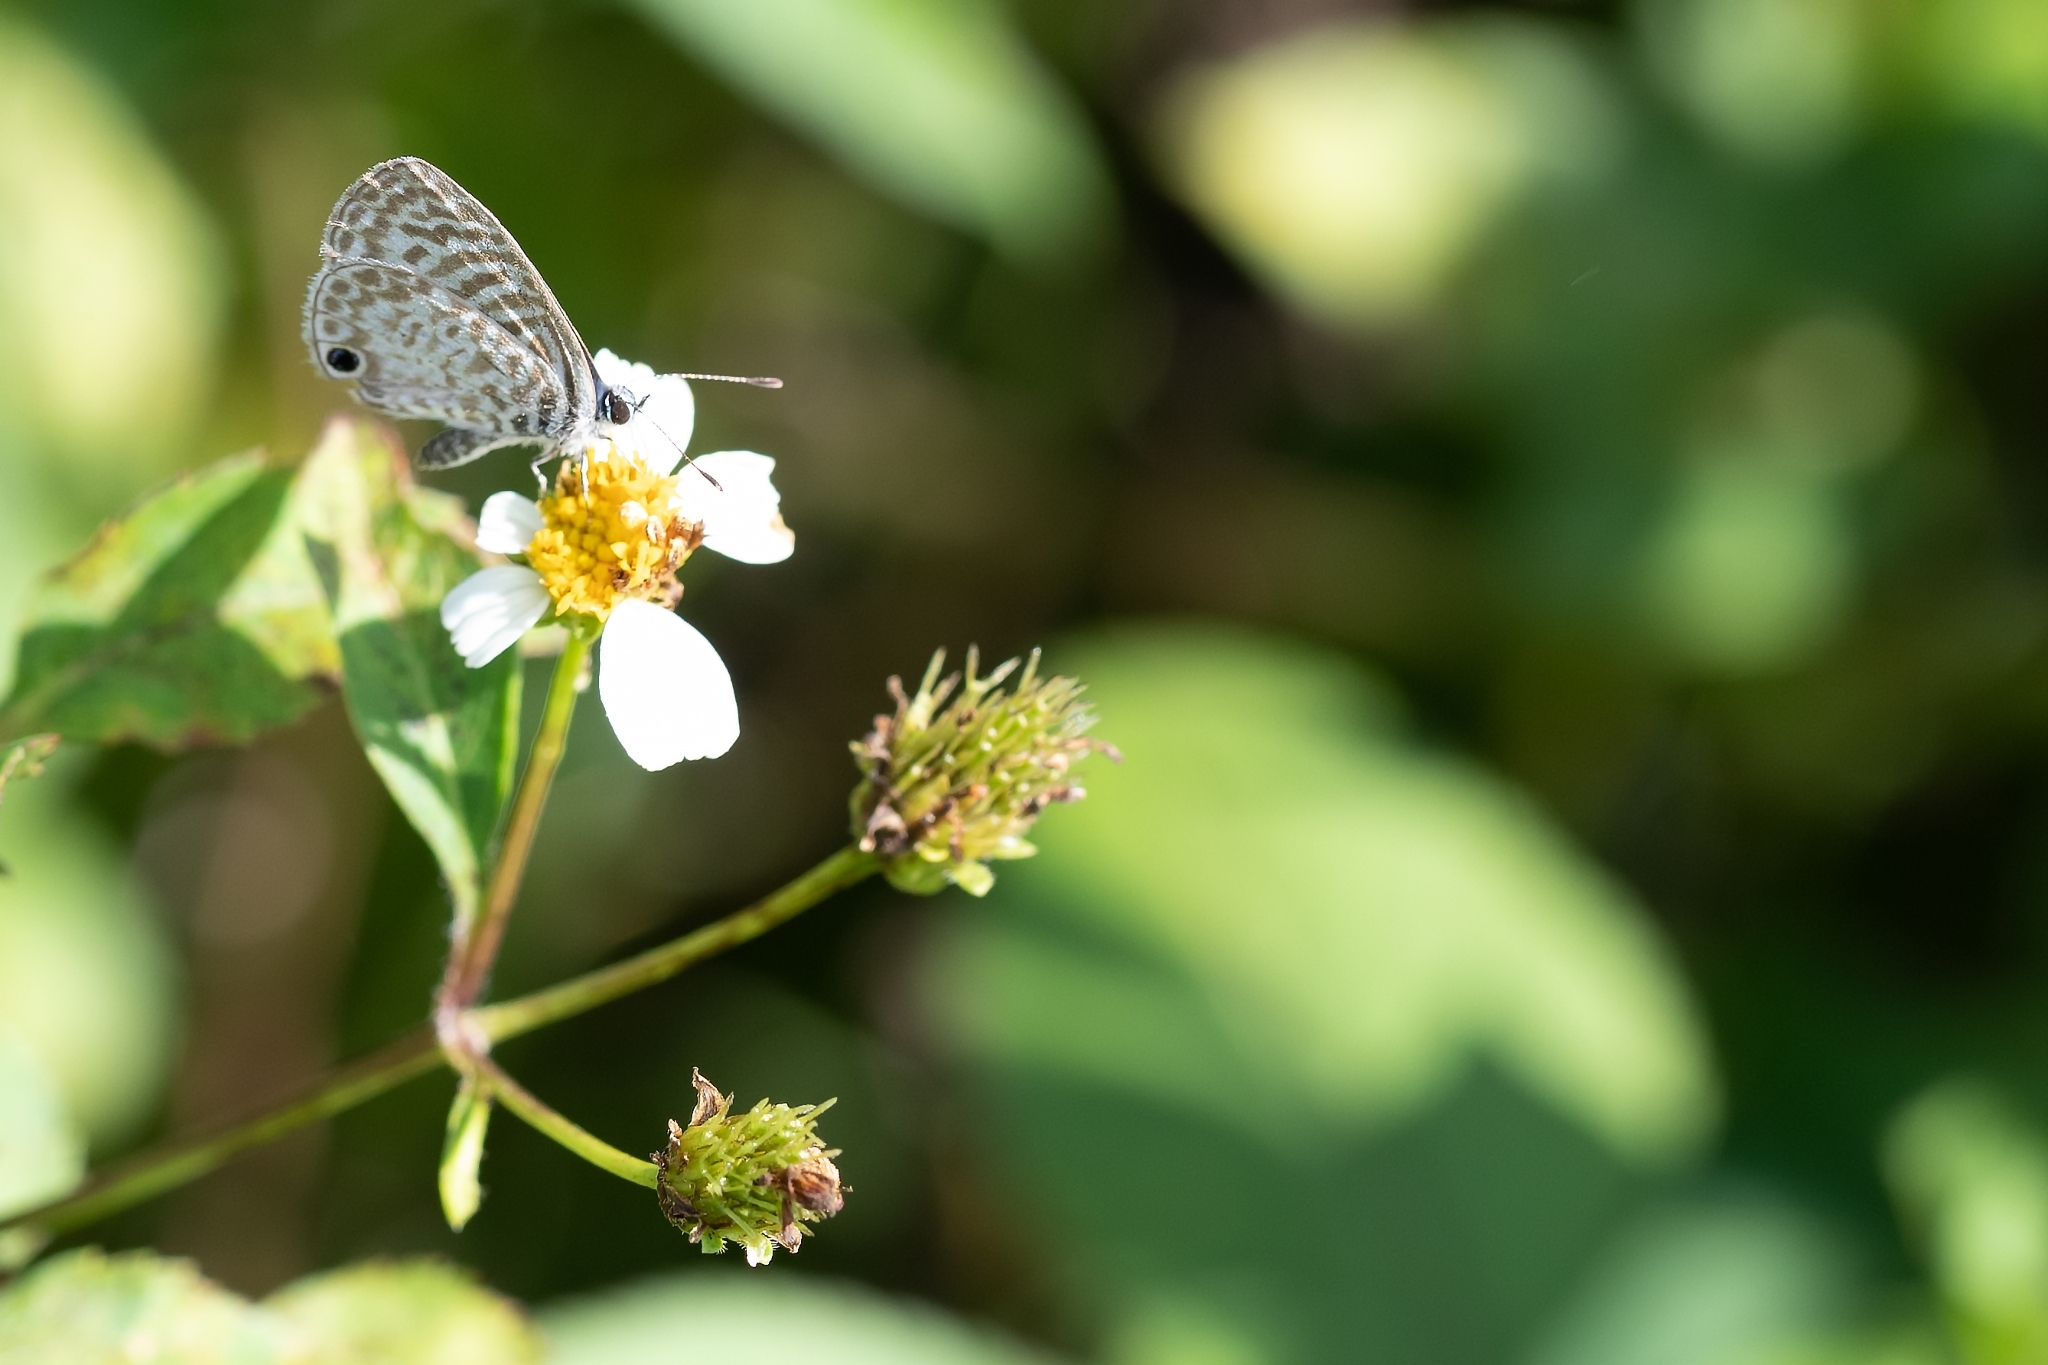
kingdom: Animalia
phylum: Arthropoda
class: Insecta
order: Lepidoptera
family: Lycaenidae
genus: Leptotes
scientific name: Leptotes cassius
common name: Cassius blue
